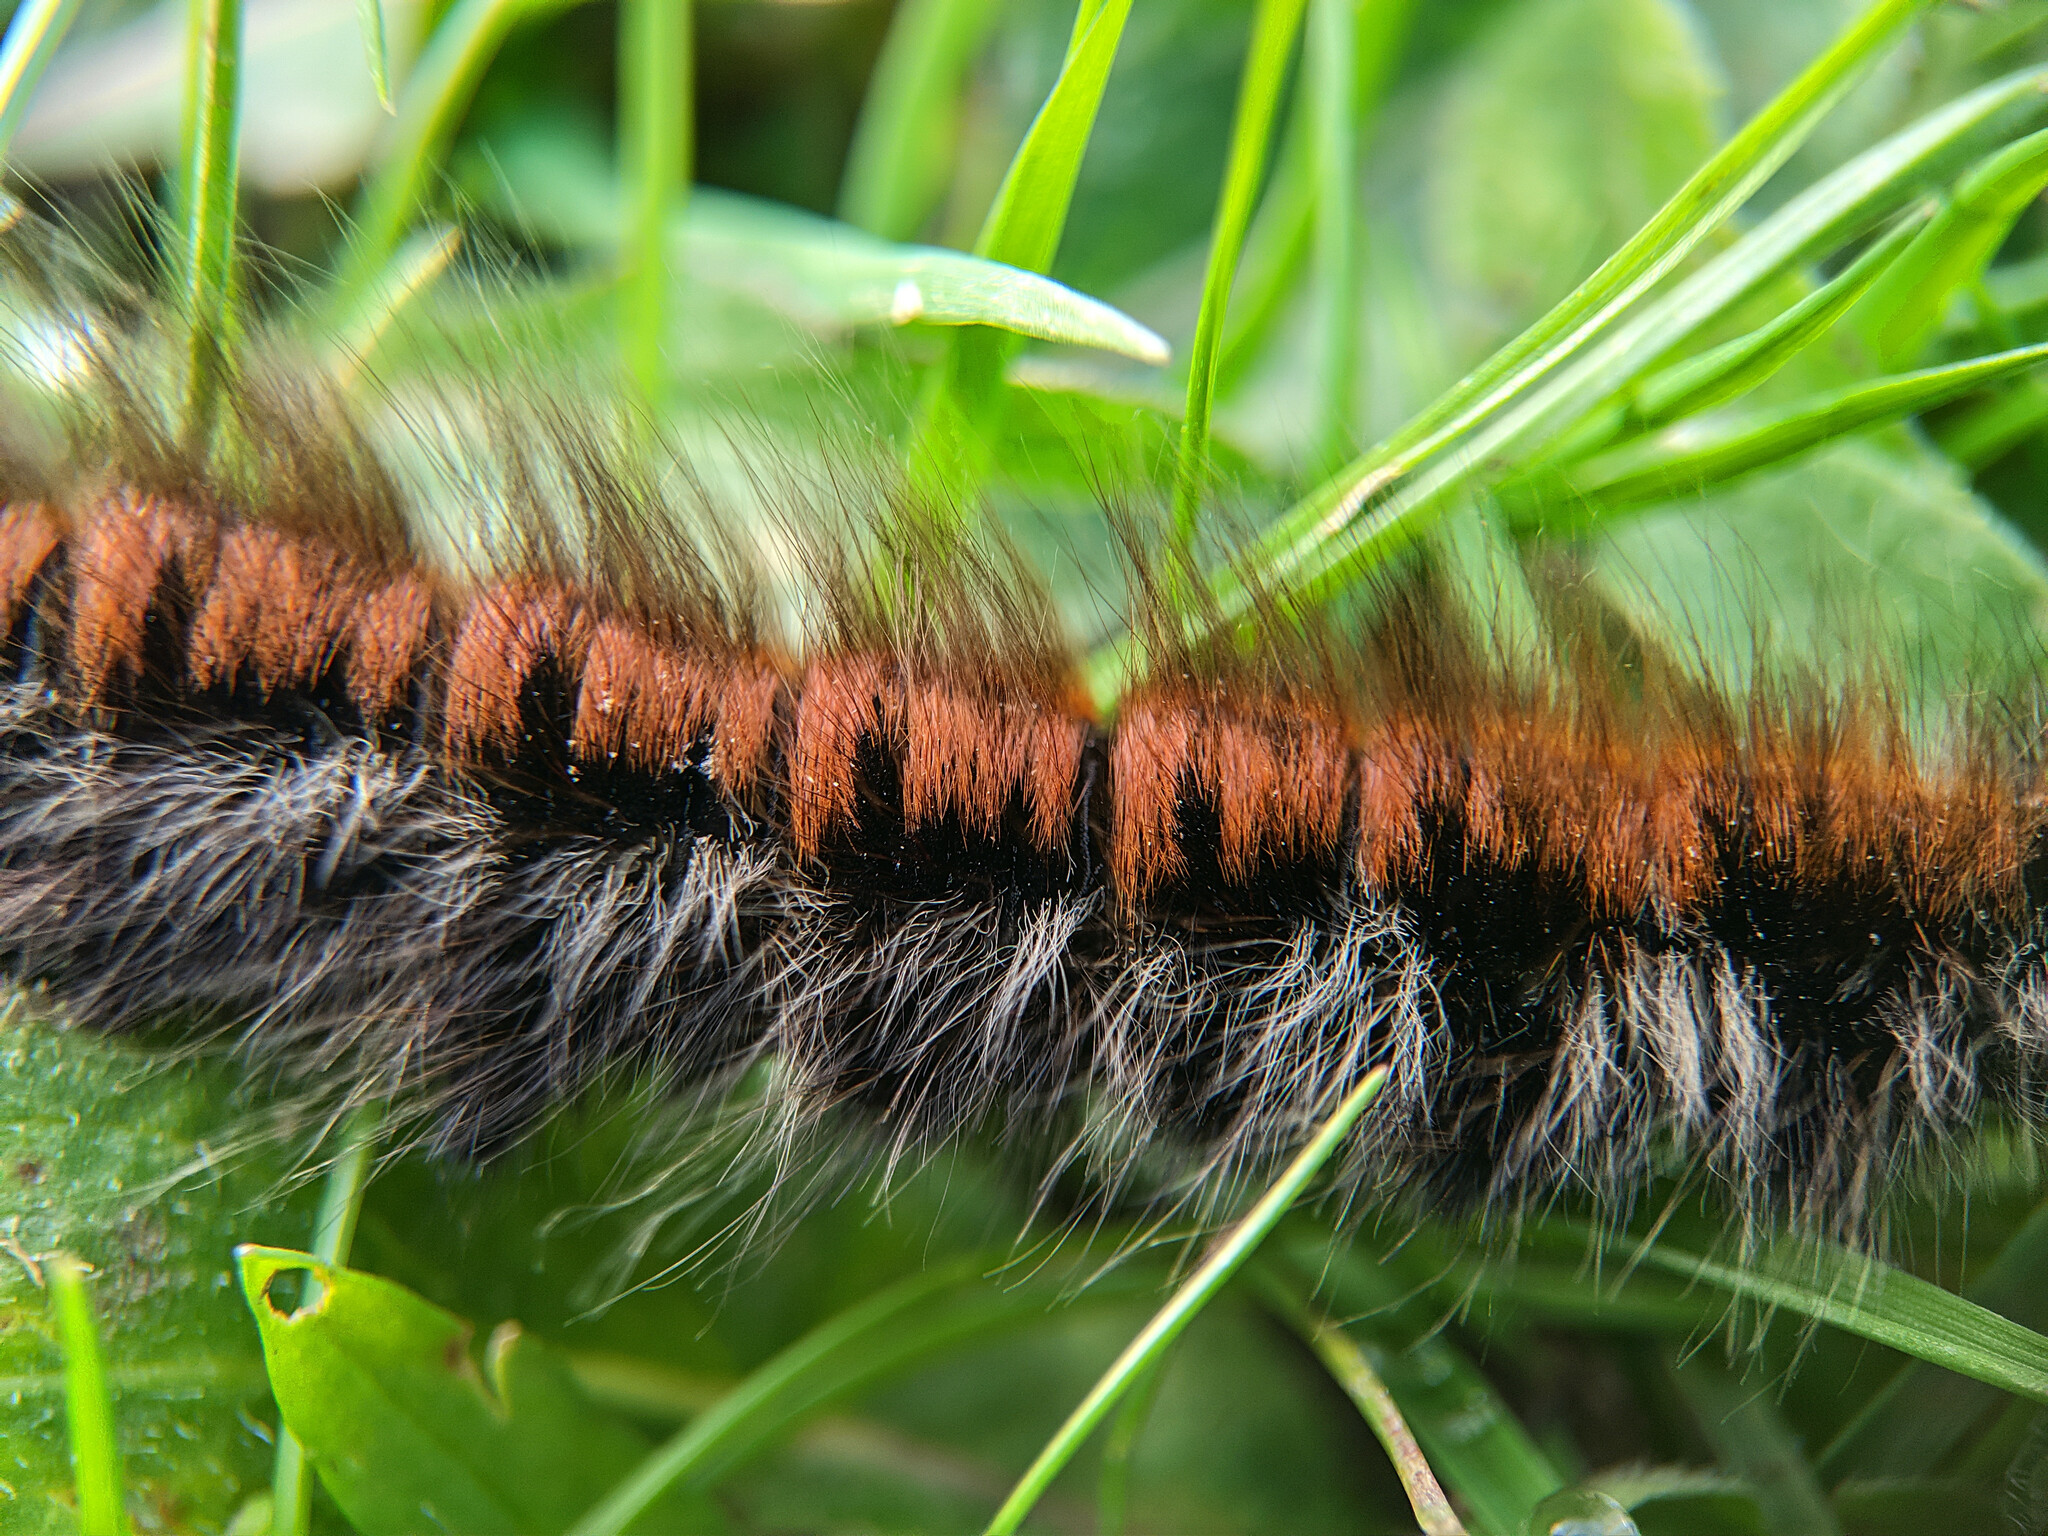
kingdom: Animalia
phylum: Arthropoda
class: Insecta
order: Lepidoptera
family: Lasiocampidae
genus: Macrothylacia
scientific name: Macrothylacia rubi
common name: Fox moth
